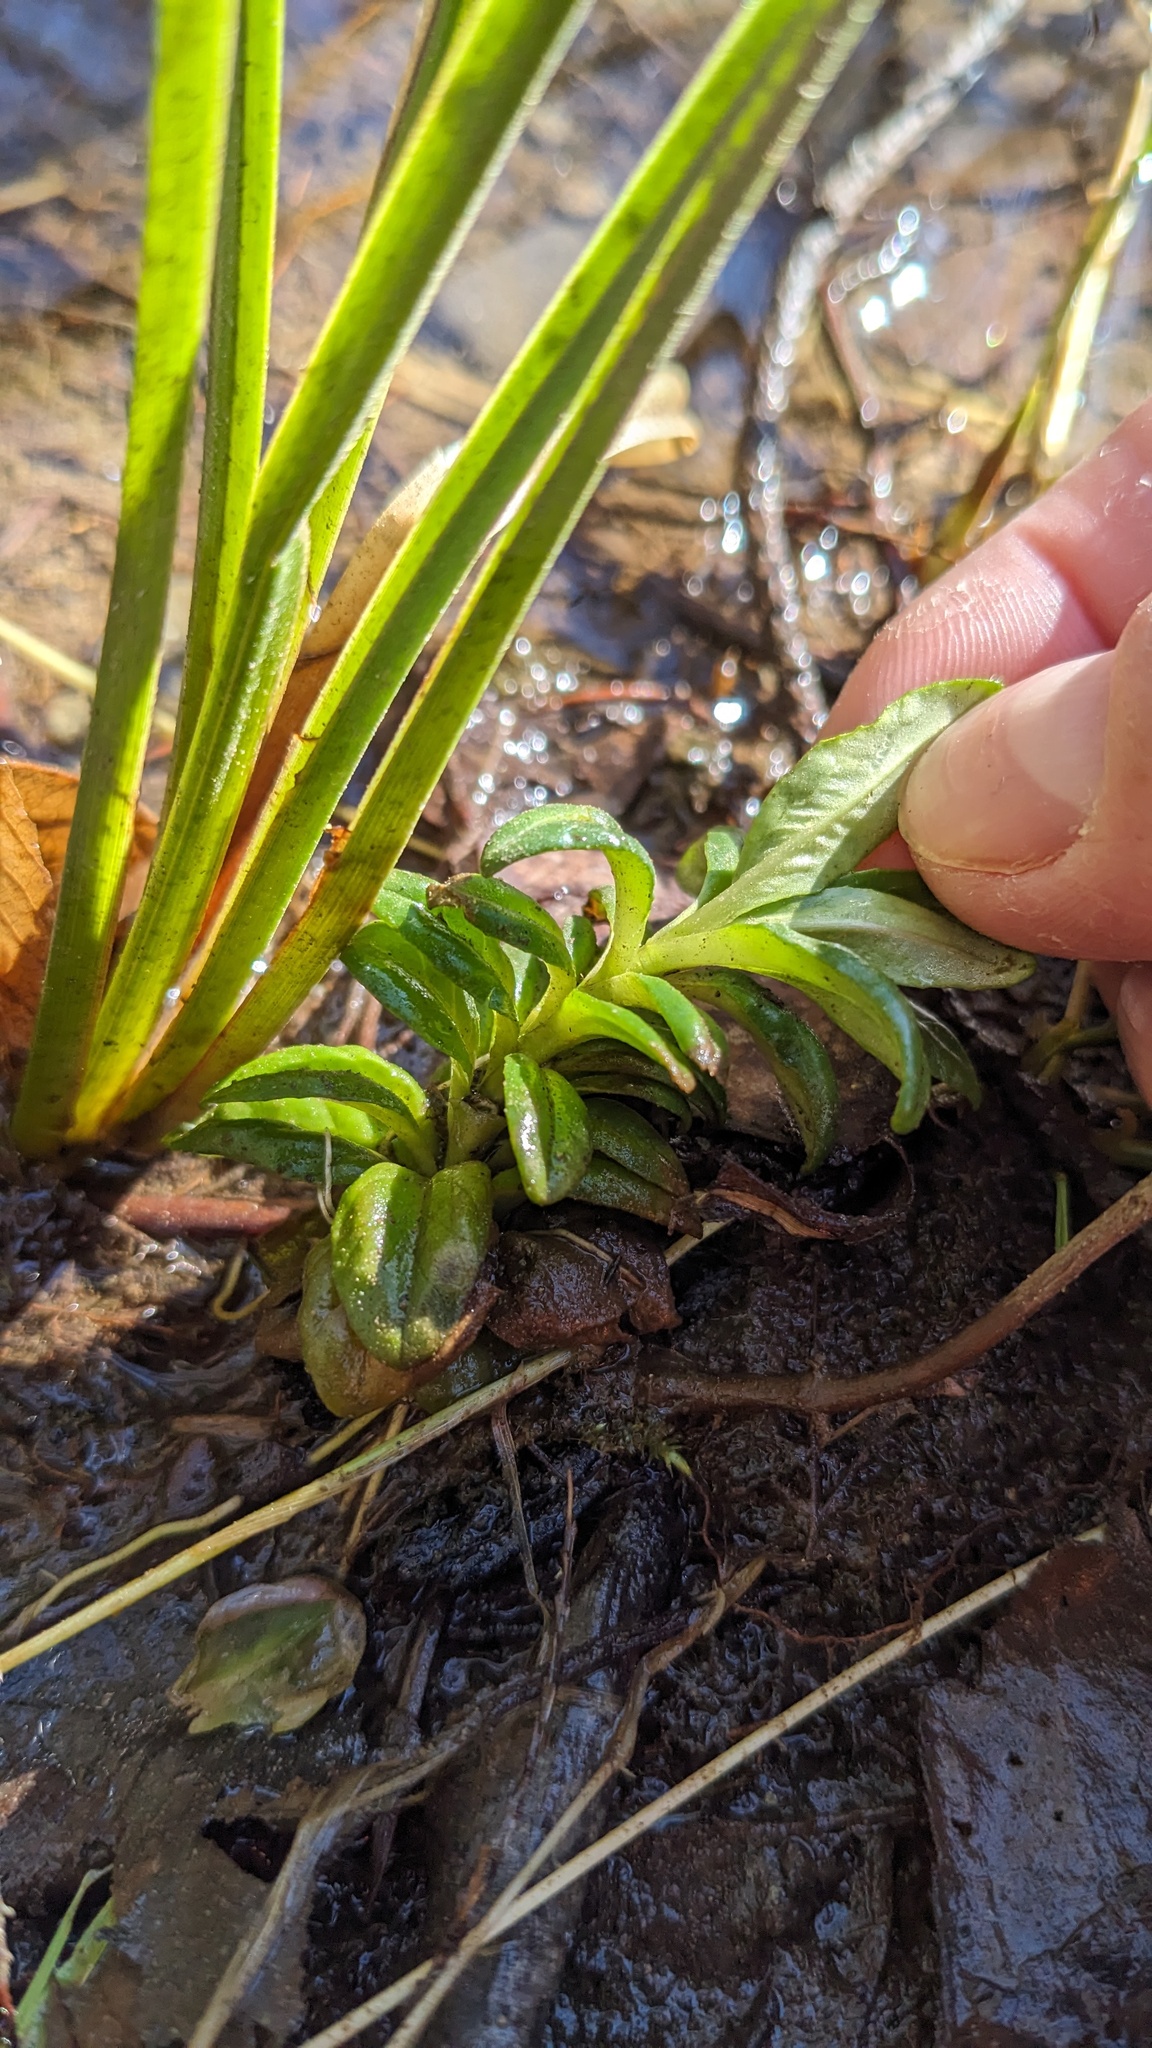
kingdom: Plantae
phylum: Tracheophyta
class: Magnoliopsida
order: Myrtales
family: Onagraceae
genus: Epilobium
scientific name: Epilobium ciliatum
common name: American willowherb
